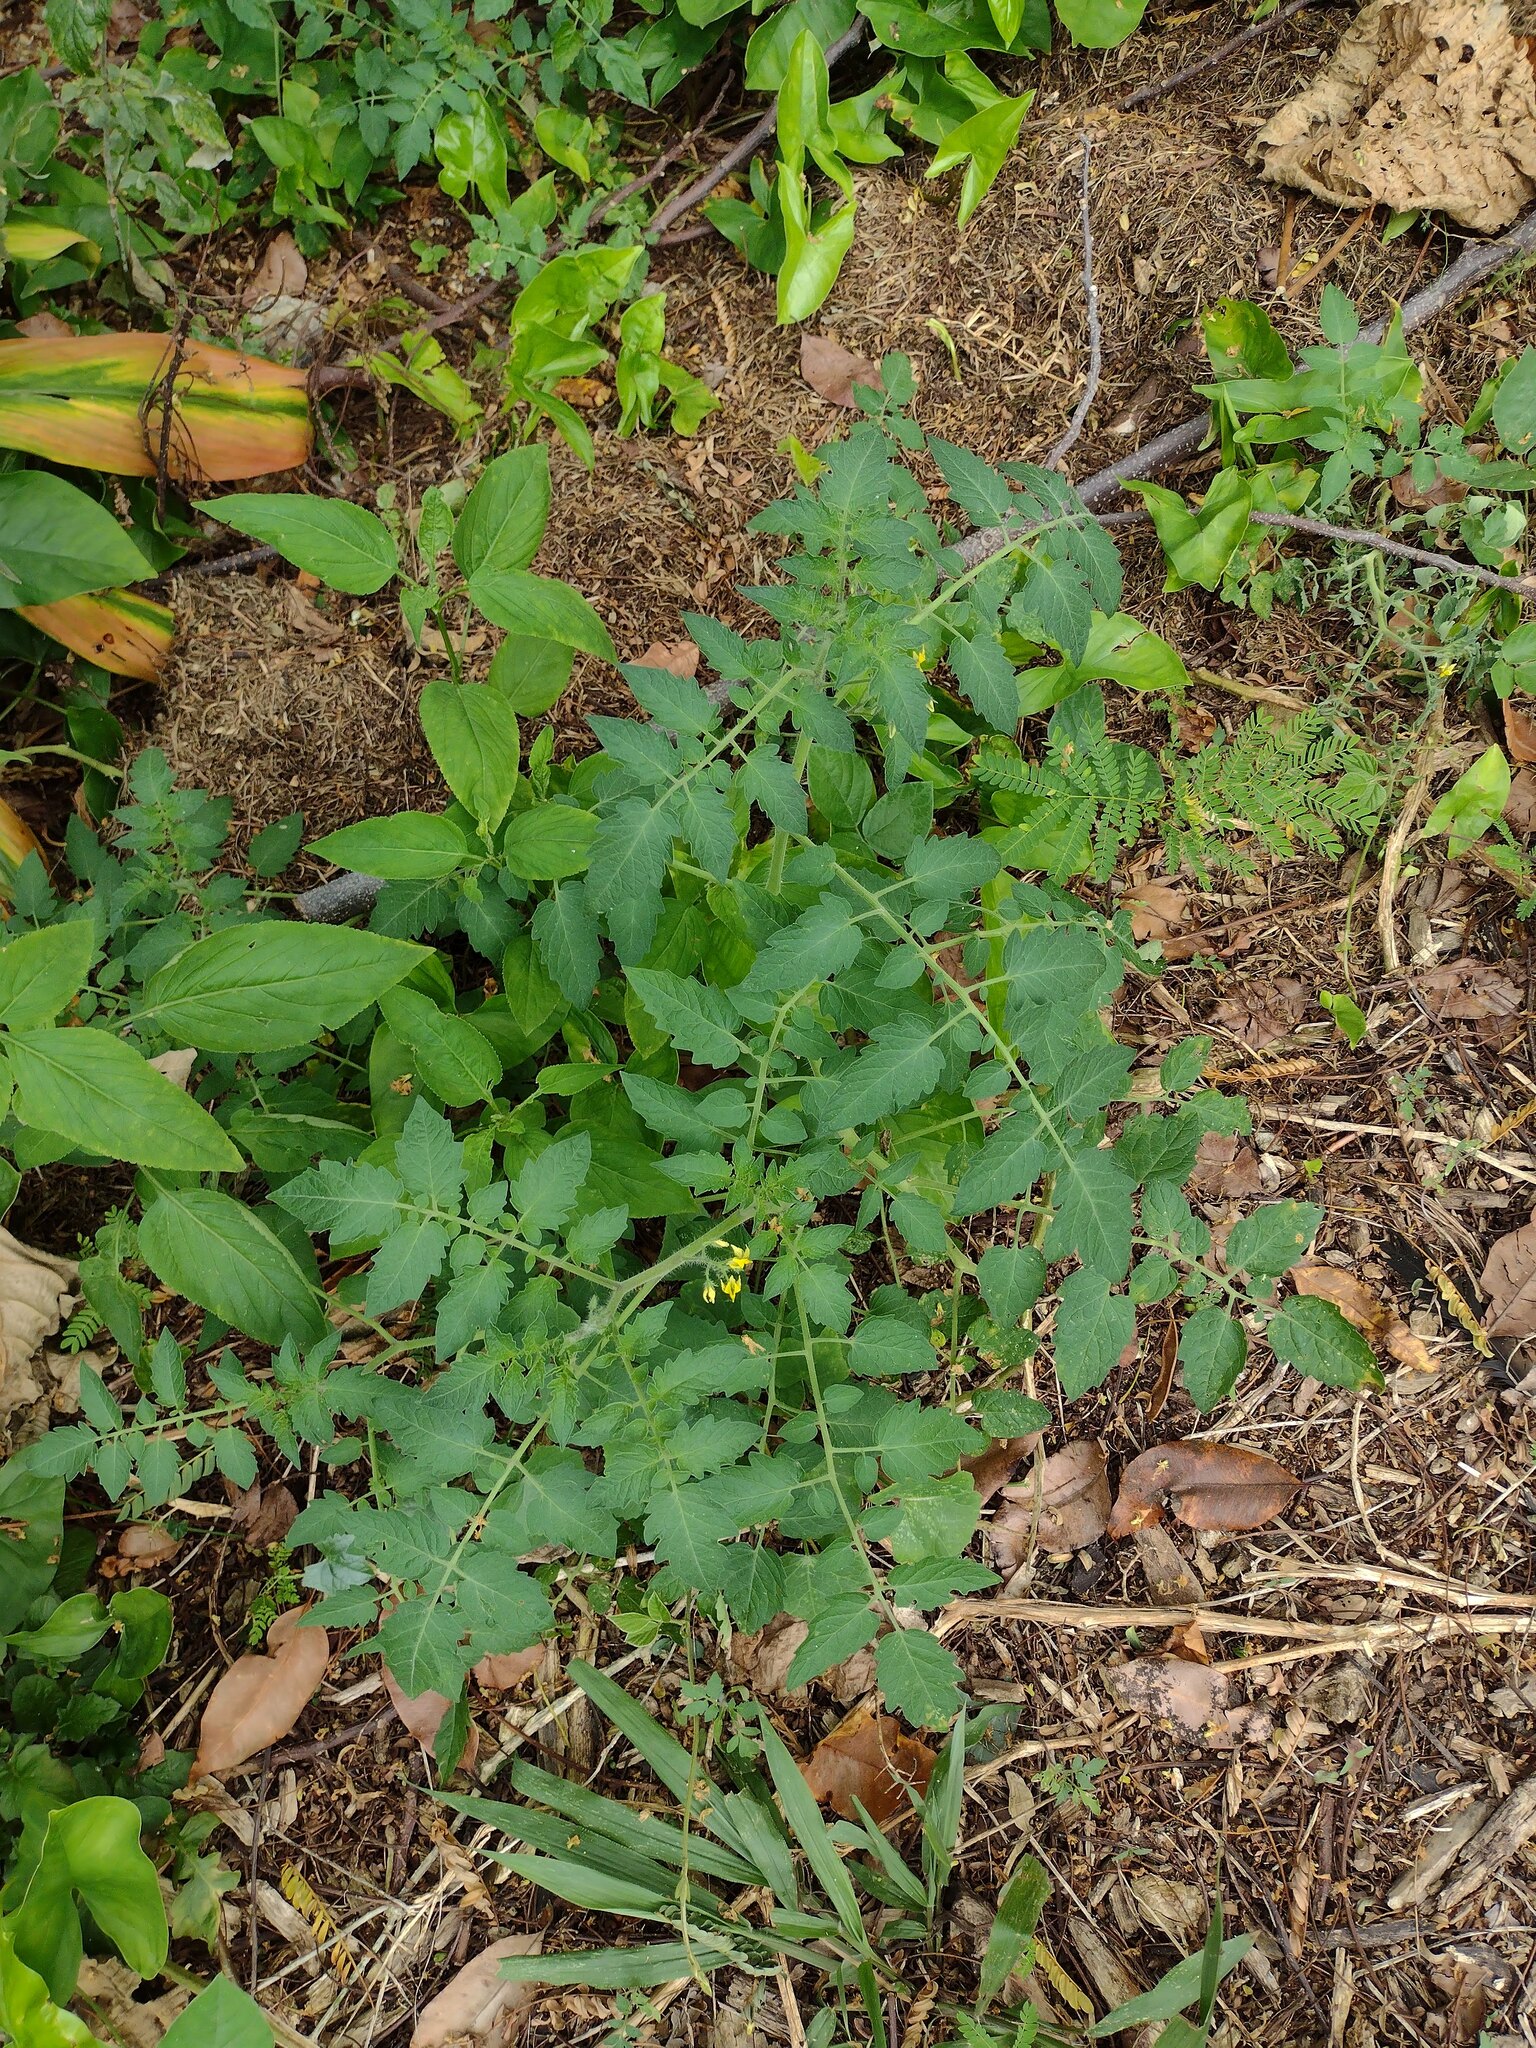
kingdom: Plantae
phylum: Tracheophyta
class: Magnoliopsida
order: Solanales
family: Solanaceae
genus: Solanum
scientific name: Solanum lycopersicum
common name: Garden tomato
